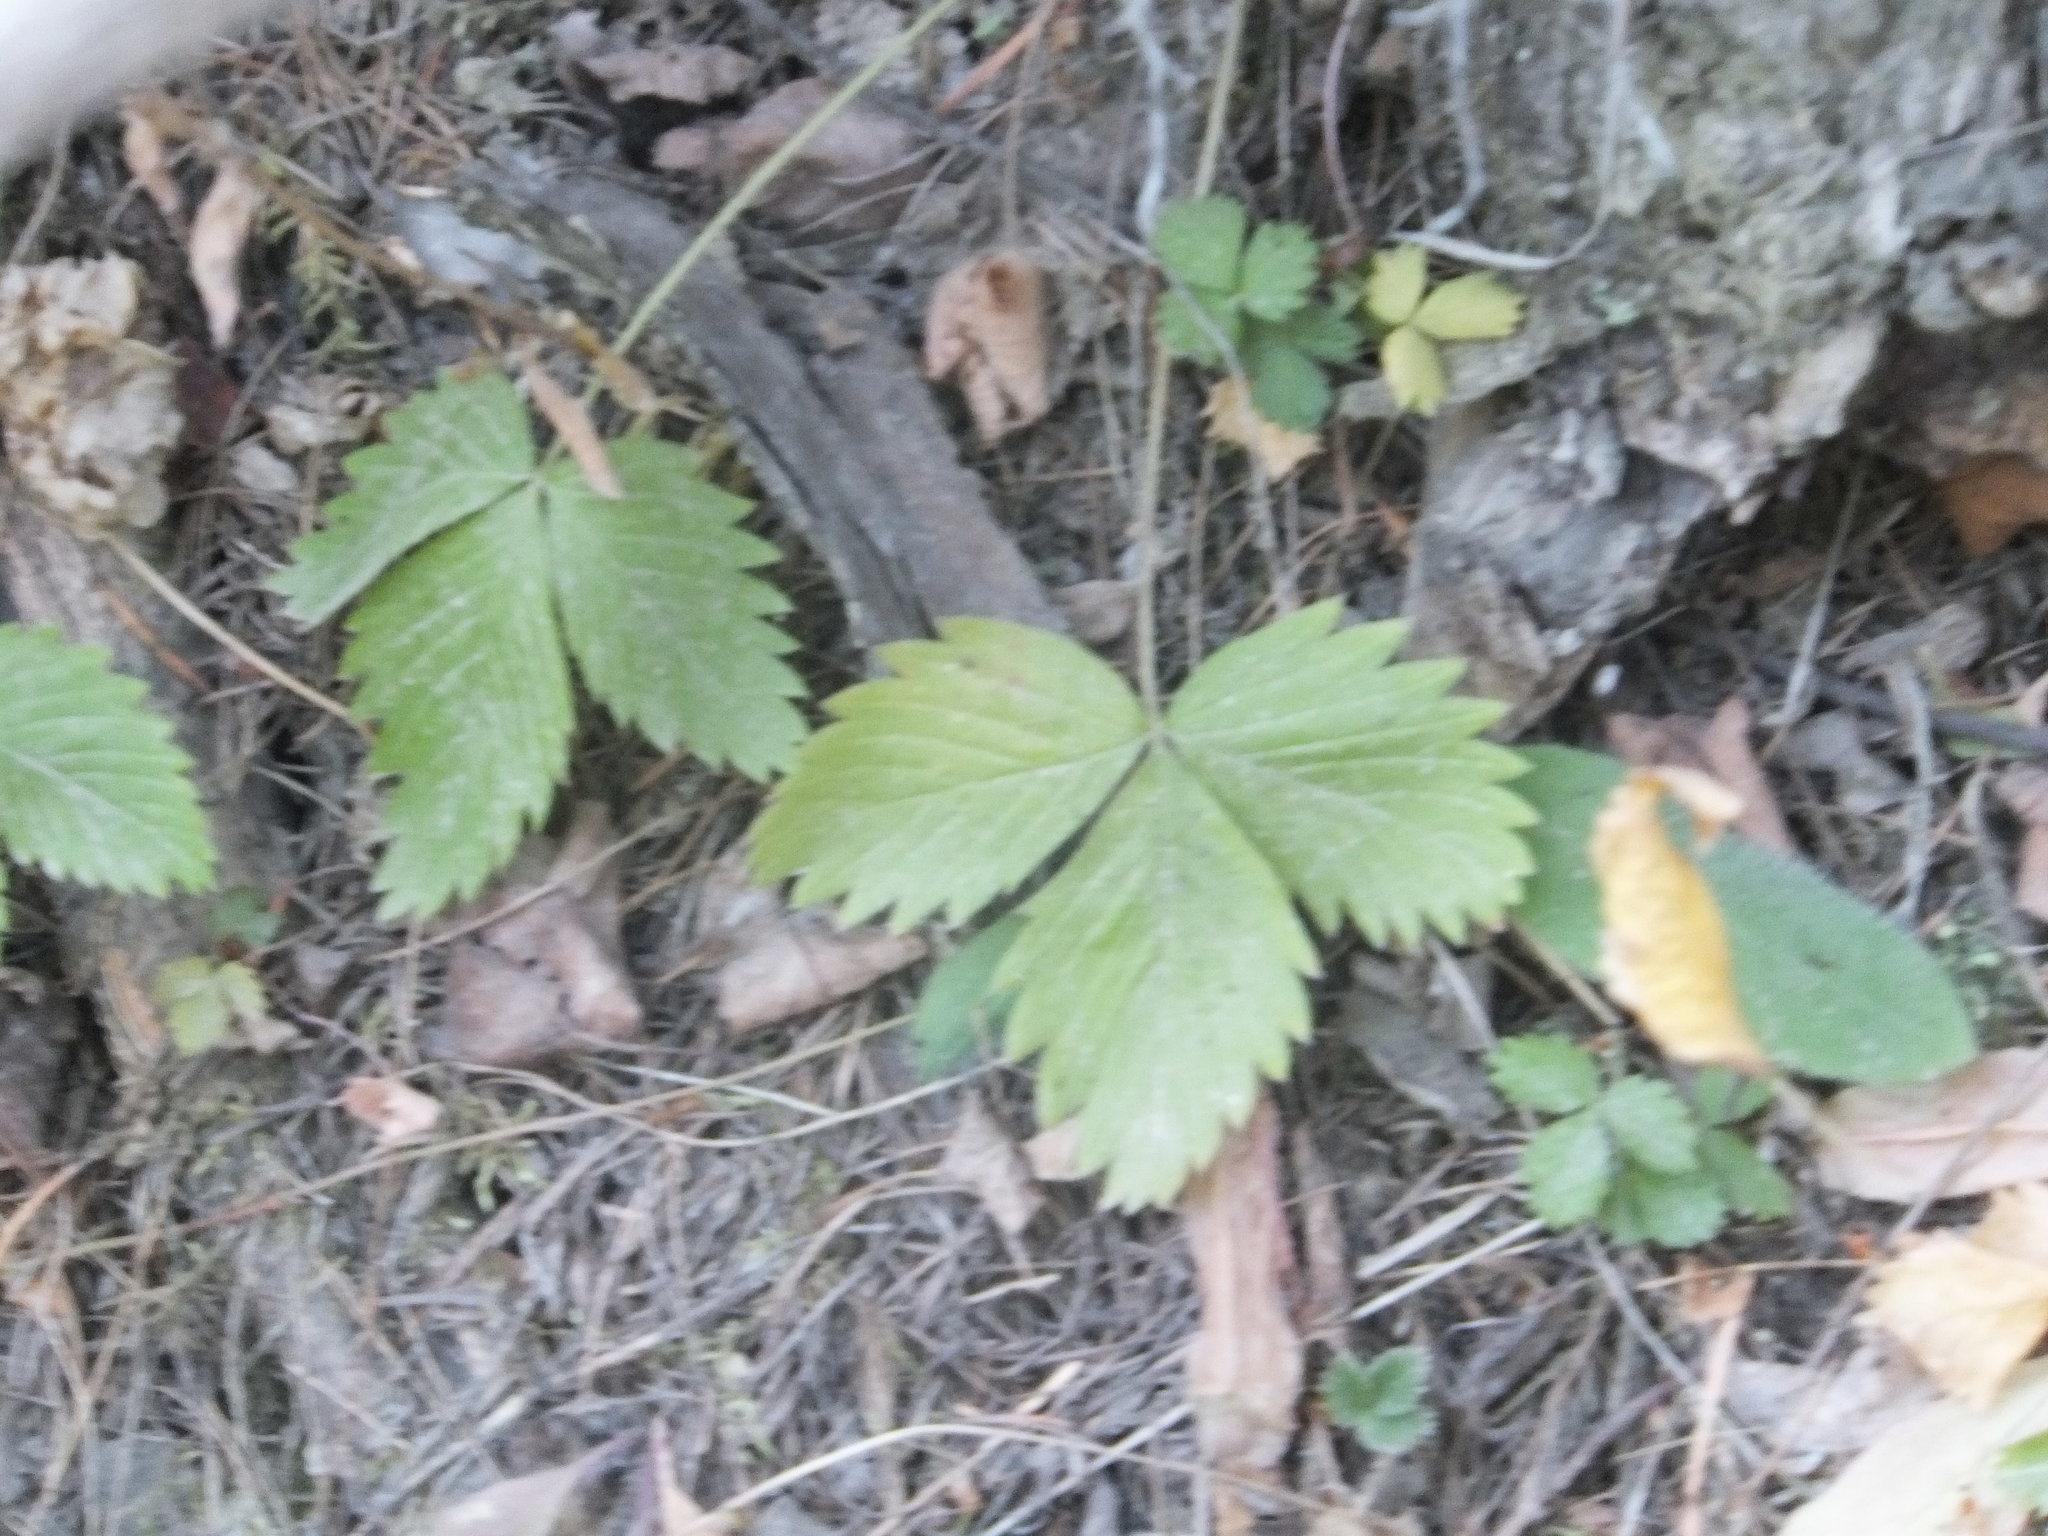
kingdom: Plantae
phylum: Tracheophyta
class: Magnoliopsida
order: Rosales
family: Rosaceae
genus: Fragaria
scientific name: Fragaria vesca
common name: Wild strawberry
